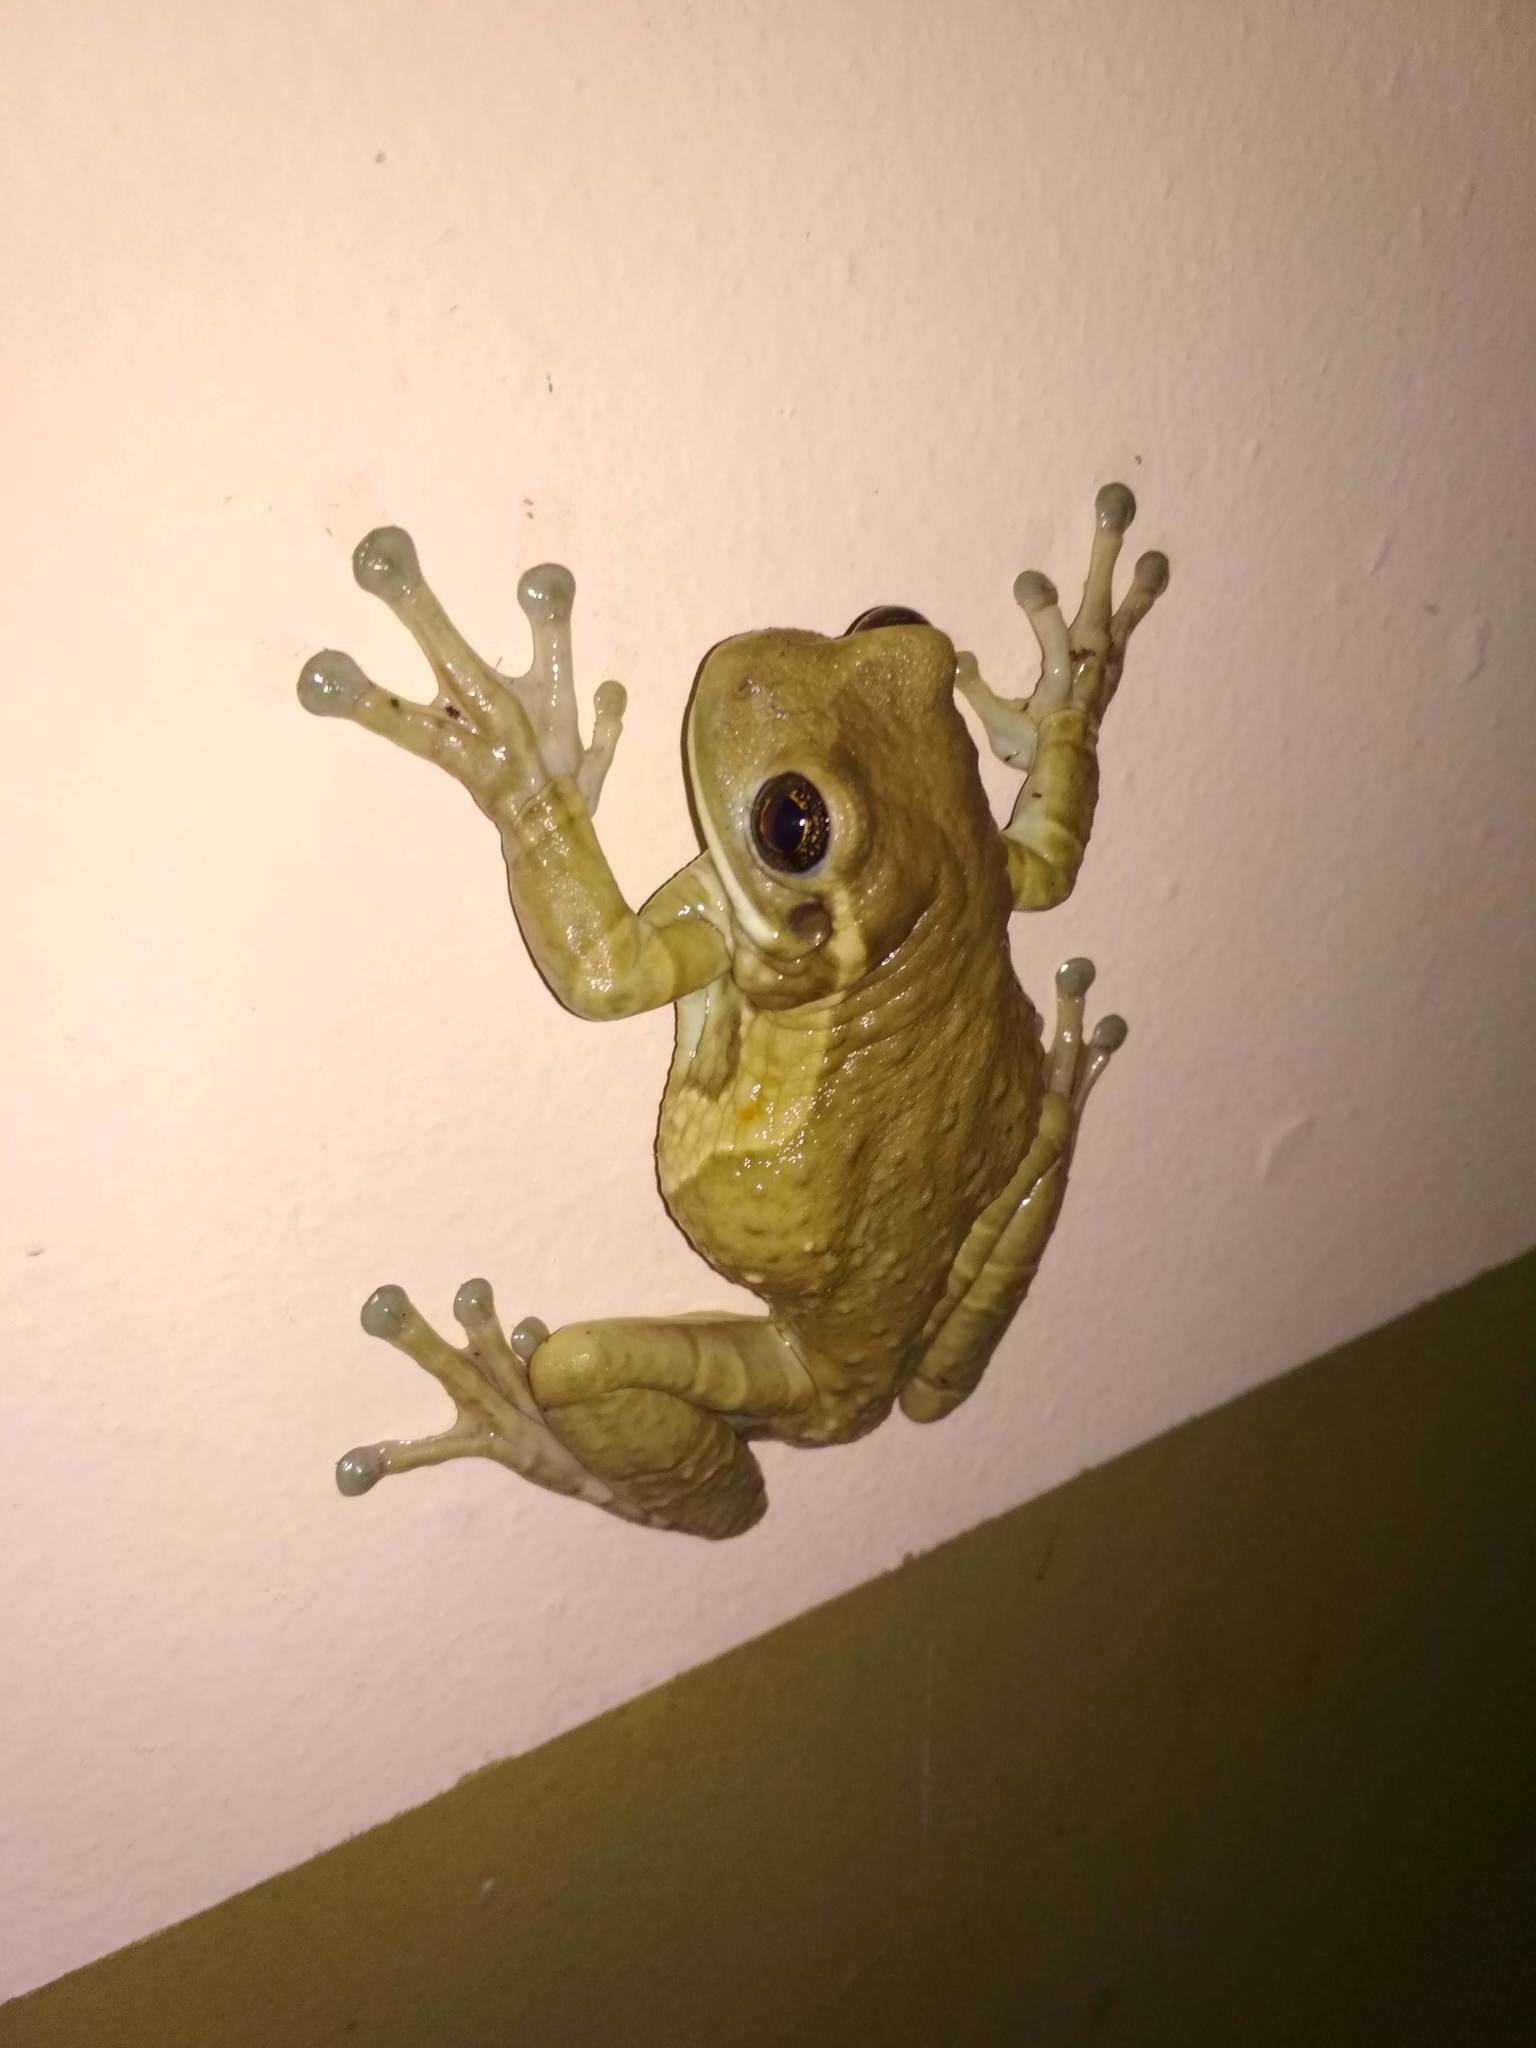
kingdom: Animalia
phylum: Chordata
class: Amphibia
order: Anura
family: Hylidae
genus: Trachycephalus
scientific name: Trachycephalus vermiculatus
